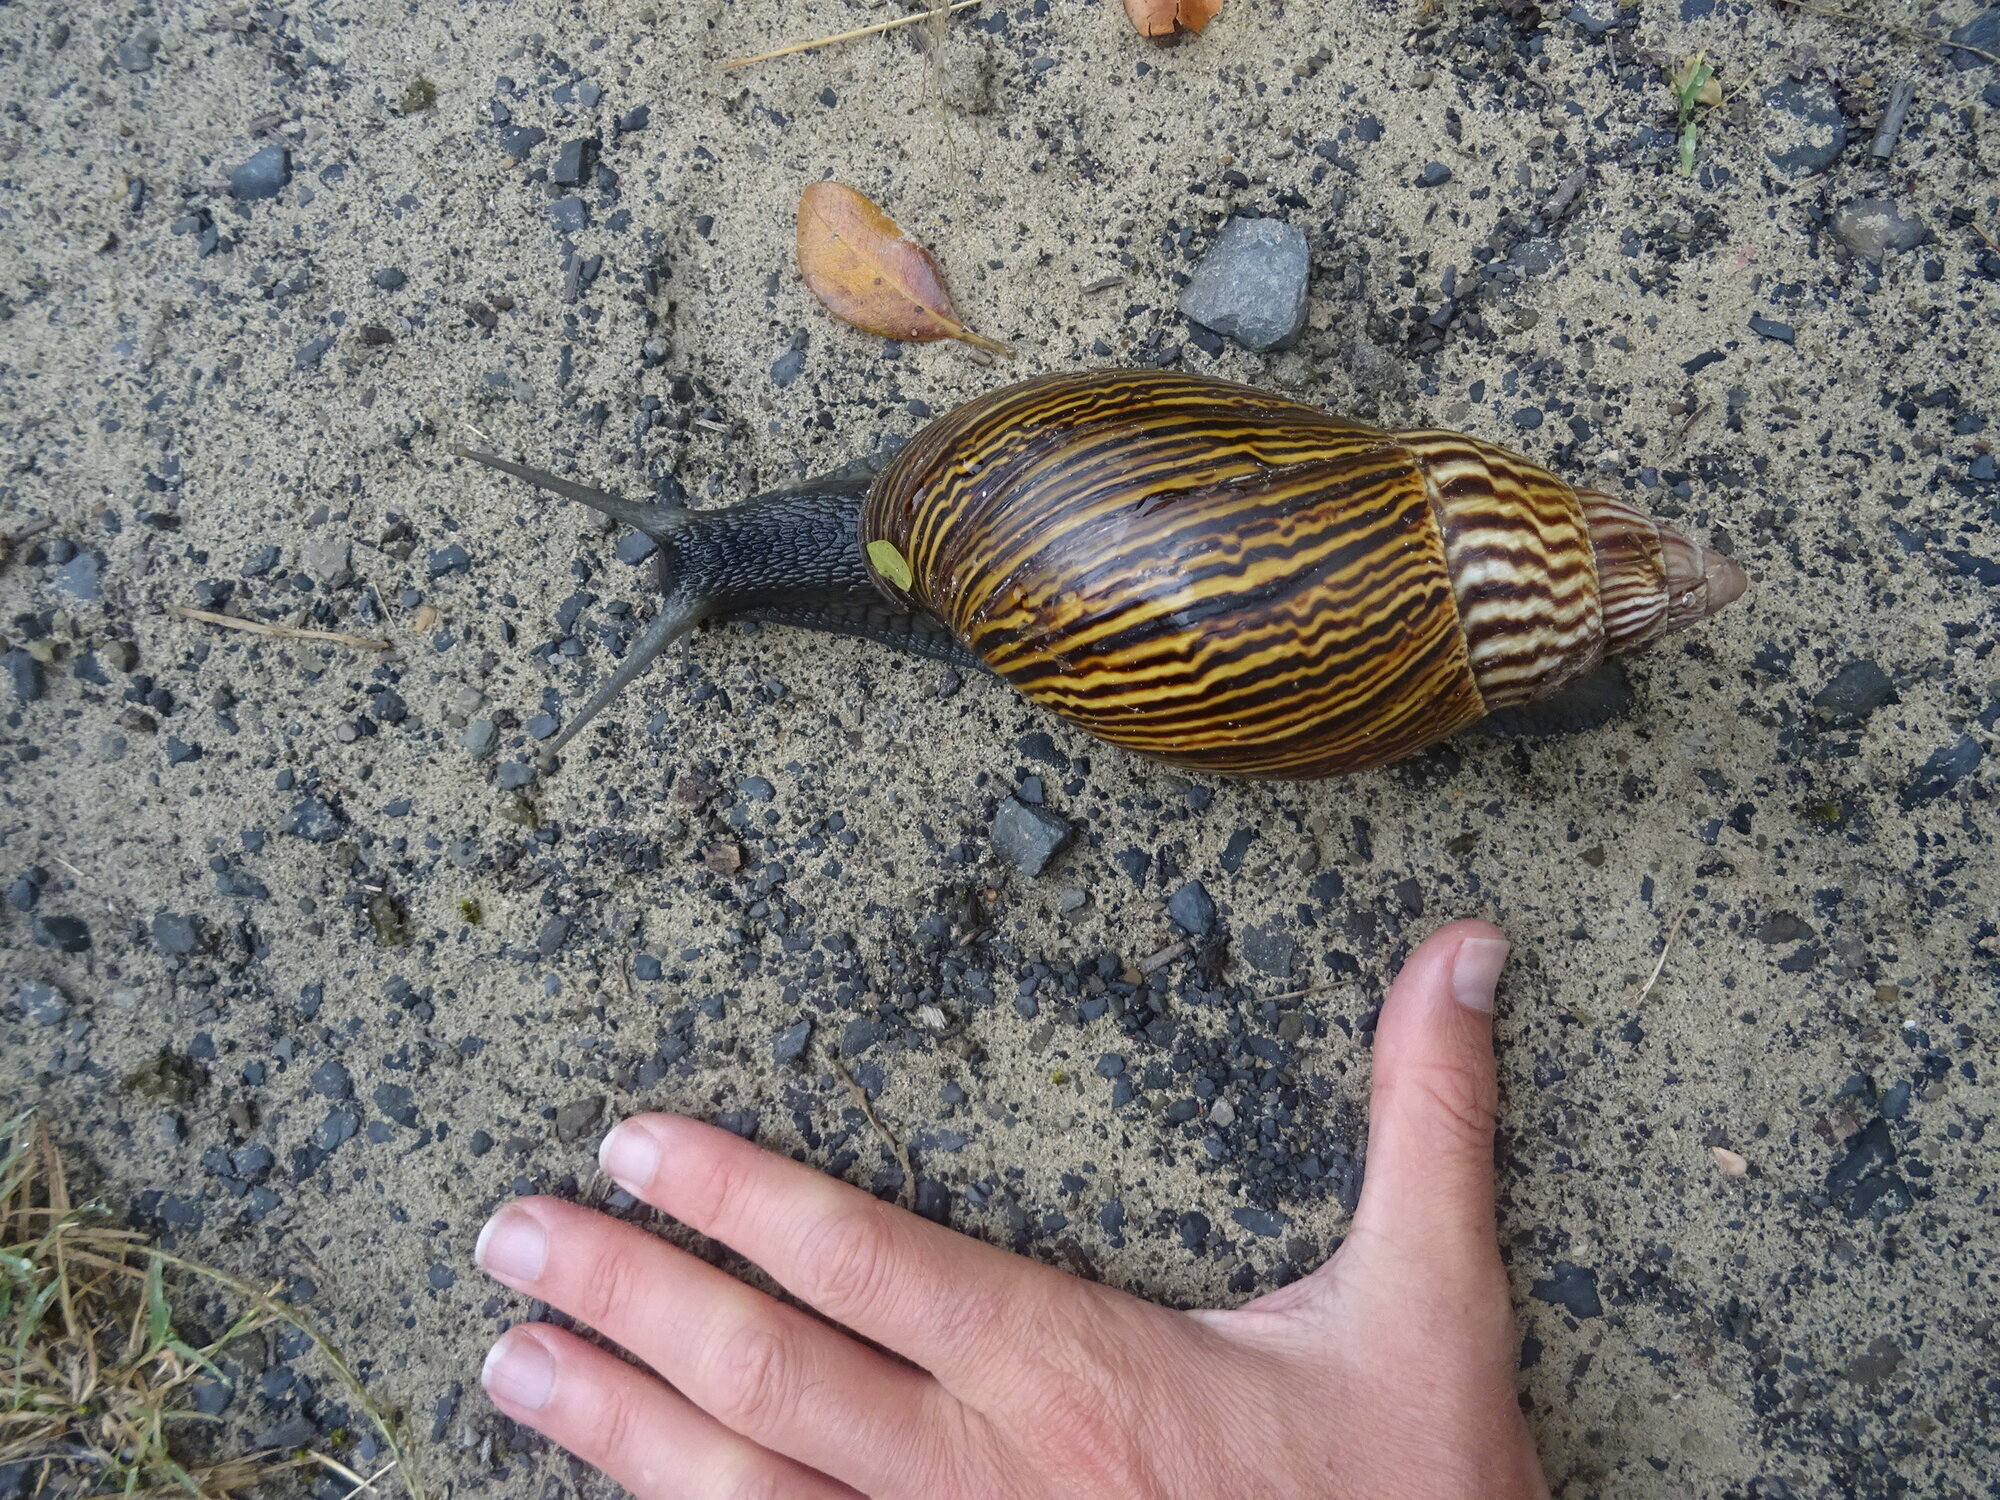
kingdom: Animalia
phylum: Mollusca
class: Gastropoda
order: Stylommatophora
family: Achatinidae
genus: Cochlitoma
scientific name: Cochlitoma zebra
